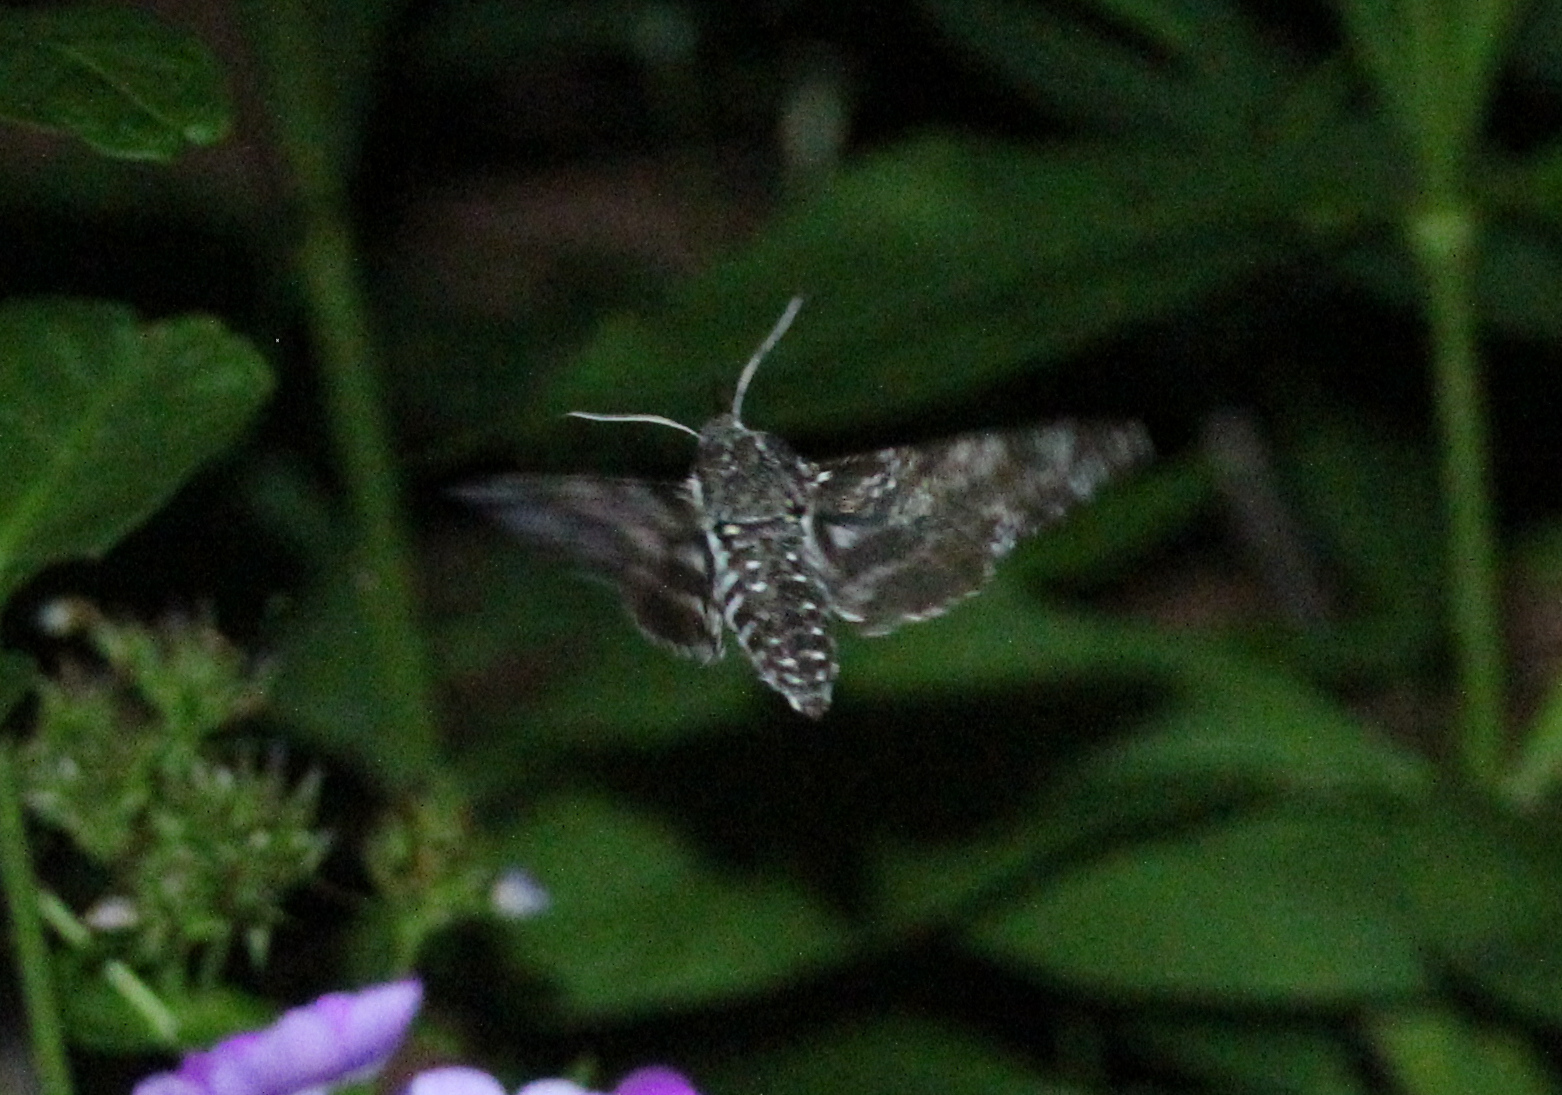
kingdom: Animalia
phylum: Arthropoda
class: Insecta
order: Lepidoptera
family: Sphingidae
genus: Dolba
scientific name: Dolba hyloeus
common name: Pawpaw sphinx
